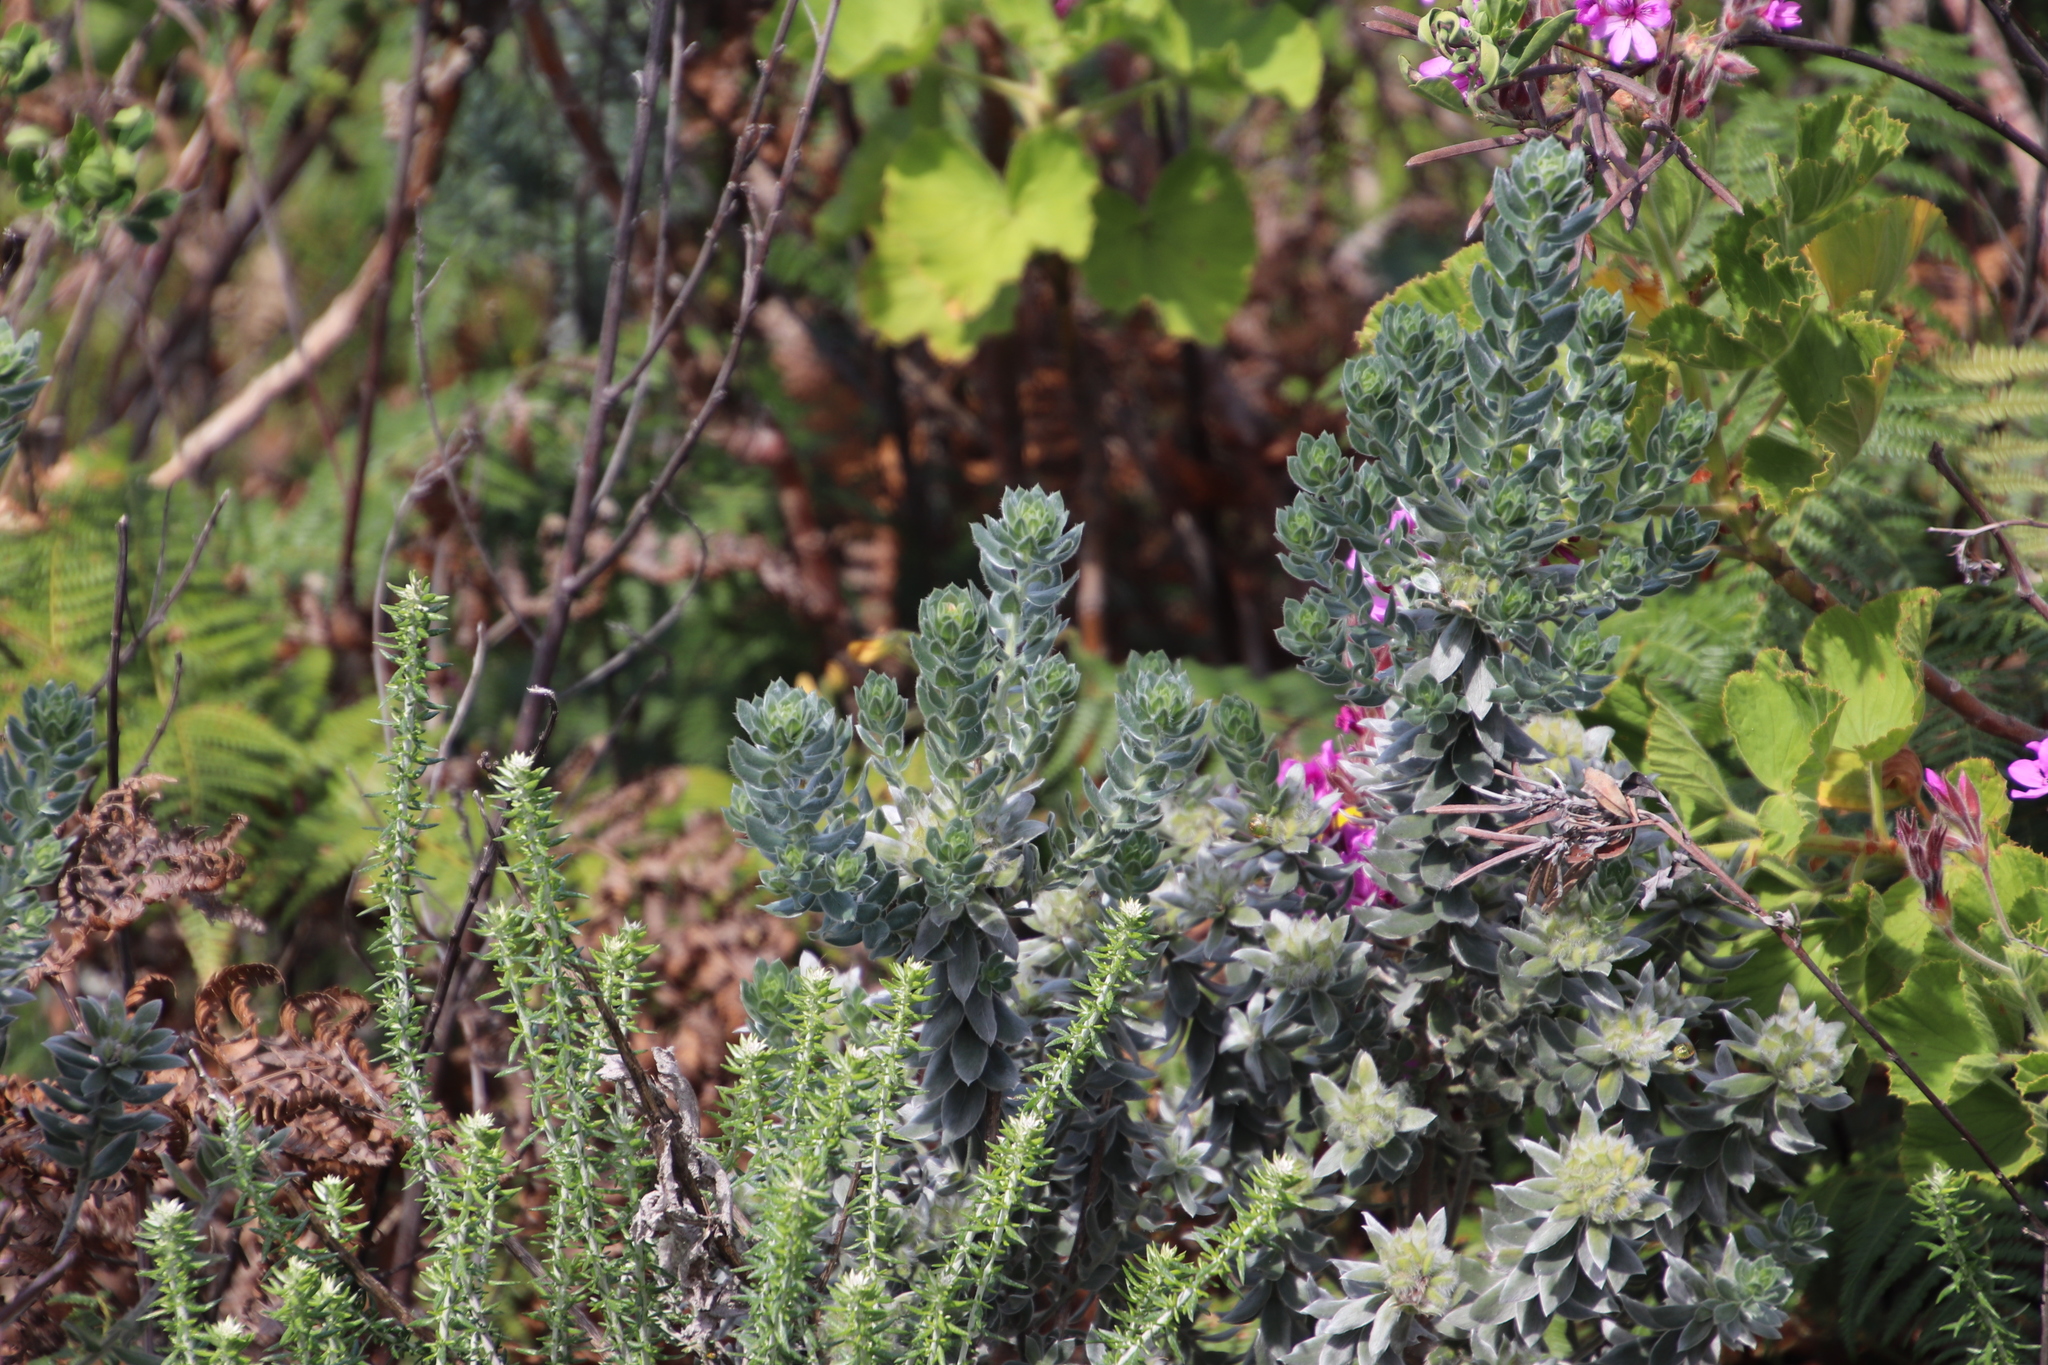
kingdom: Plantae
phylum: Tracheophyta
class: Magnoliopsida
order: Fabales
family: Fabaceae
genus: Xiphotheca
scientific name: Xiphotheca fruticosa
